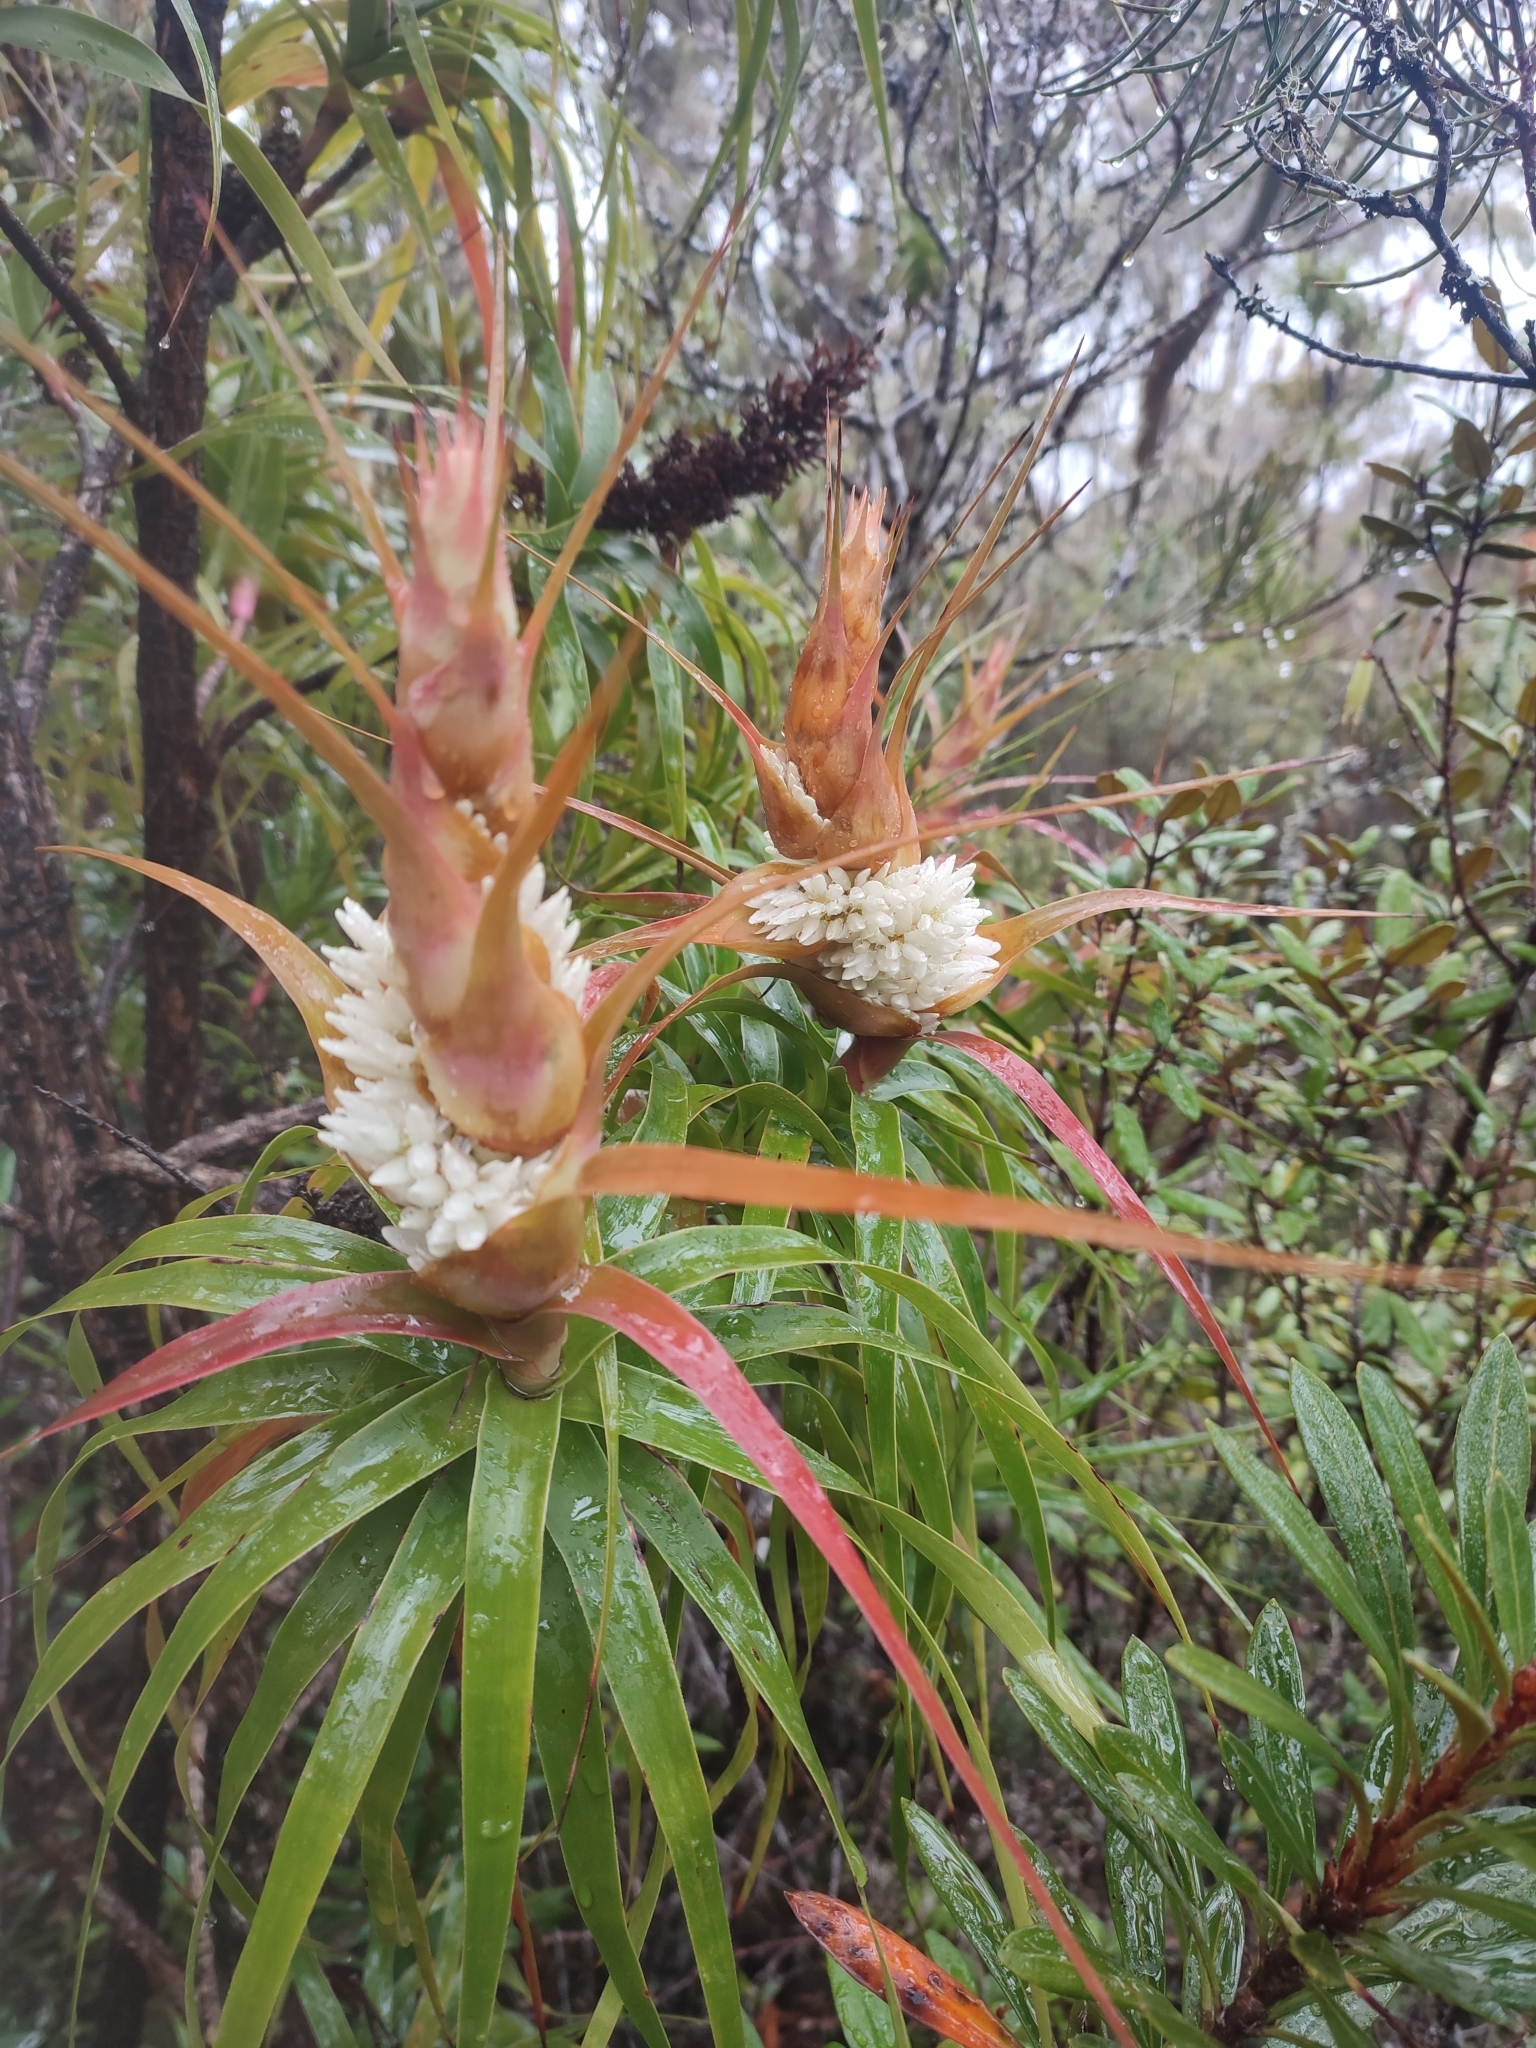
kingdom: Plantae
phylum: Tracheophyta
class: Magnoliopsida
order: Ericales
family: Ericaceae
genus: Dracophyllum
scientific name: Dracophyllum desgrazii
